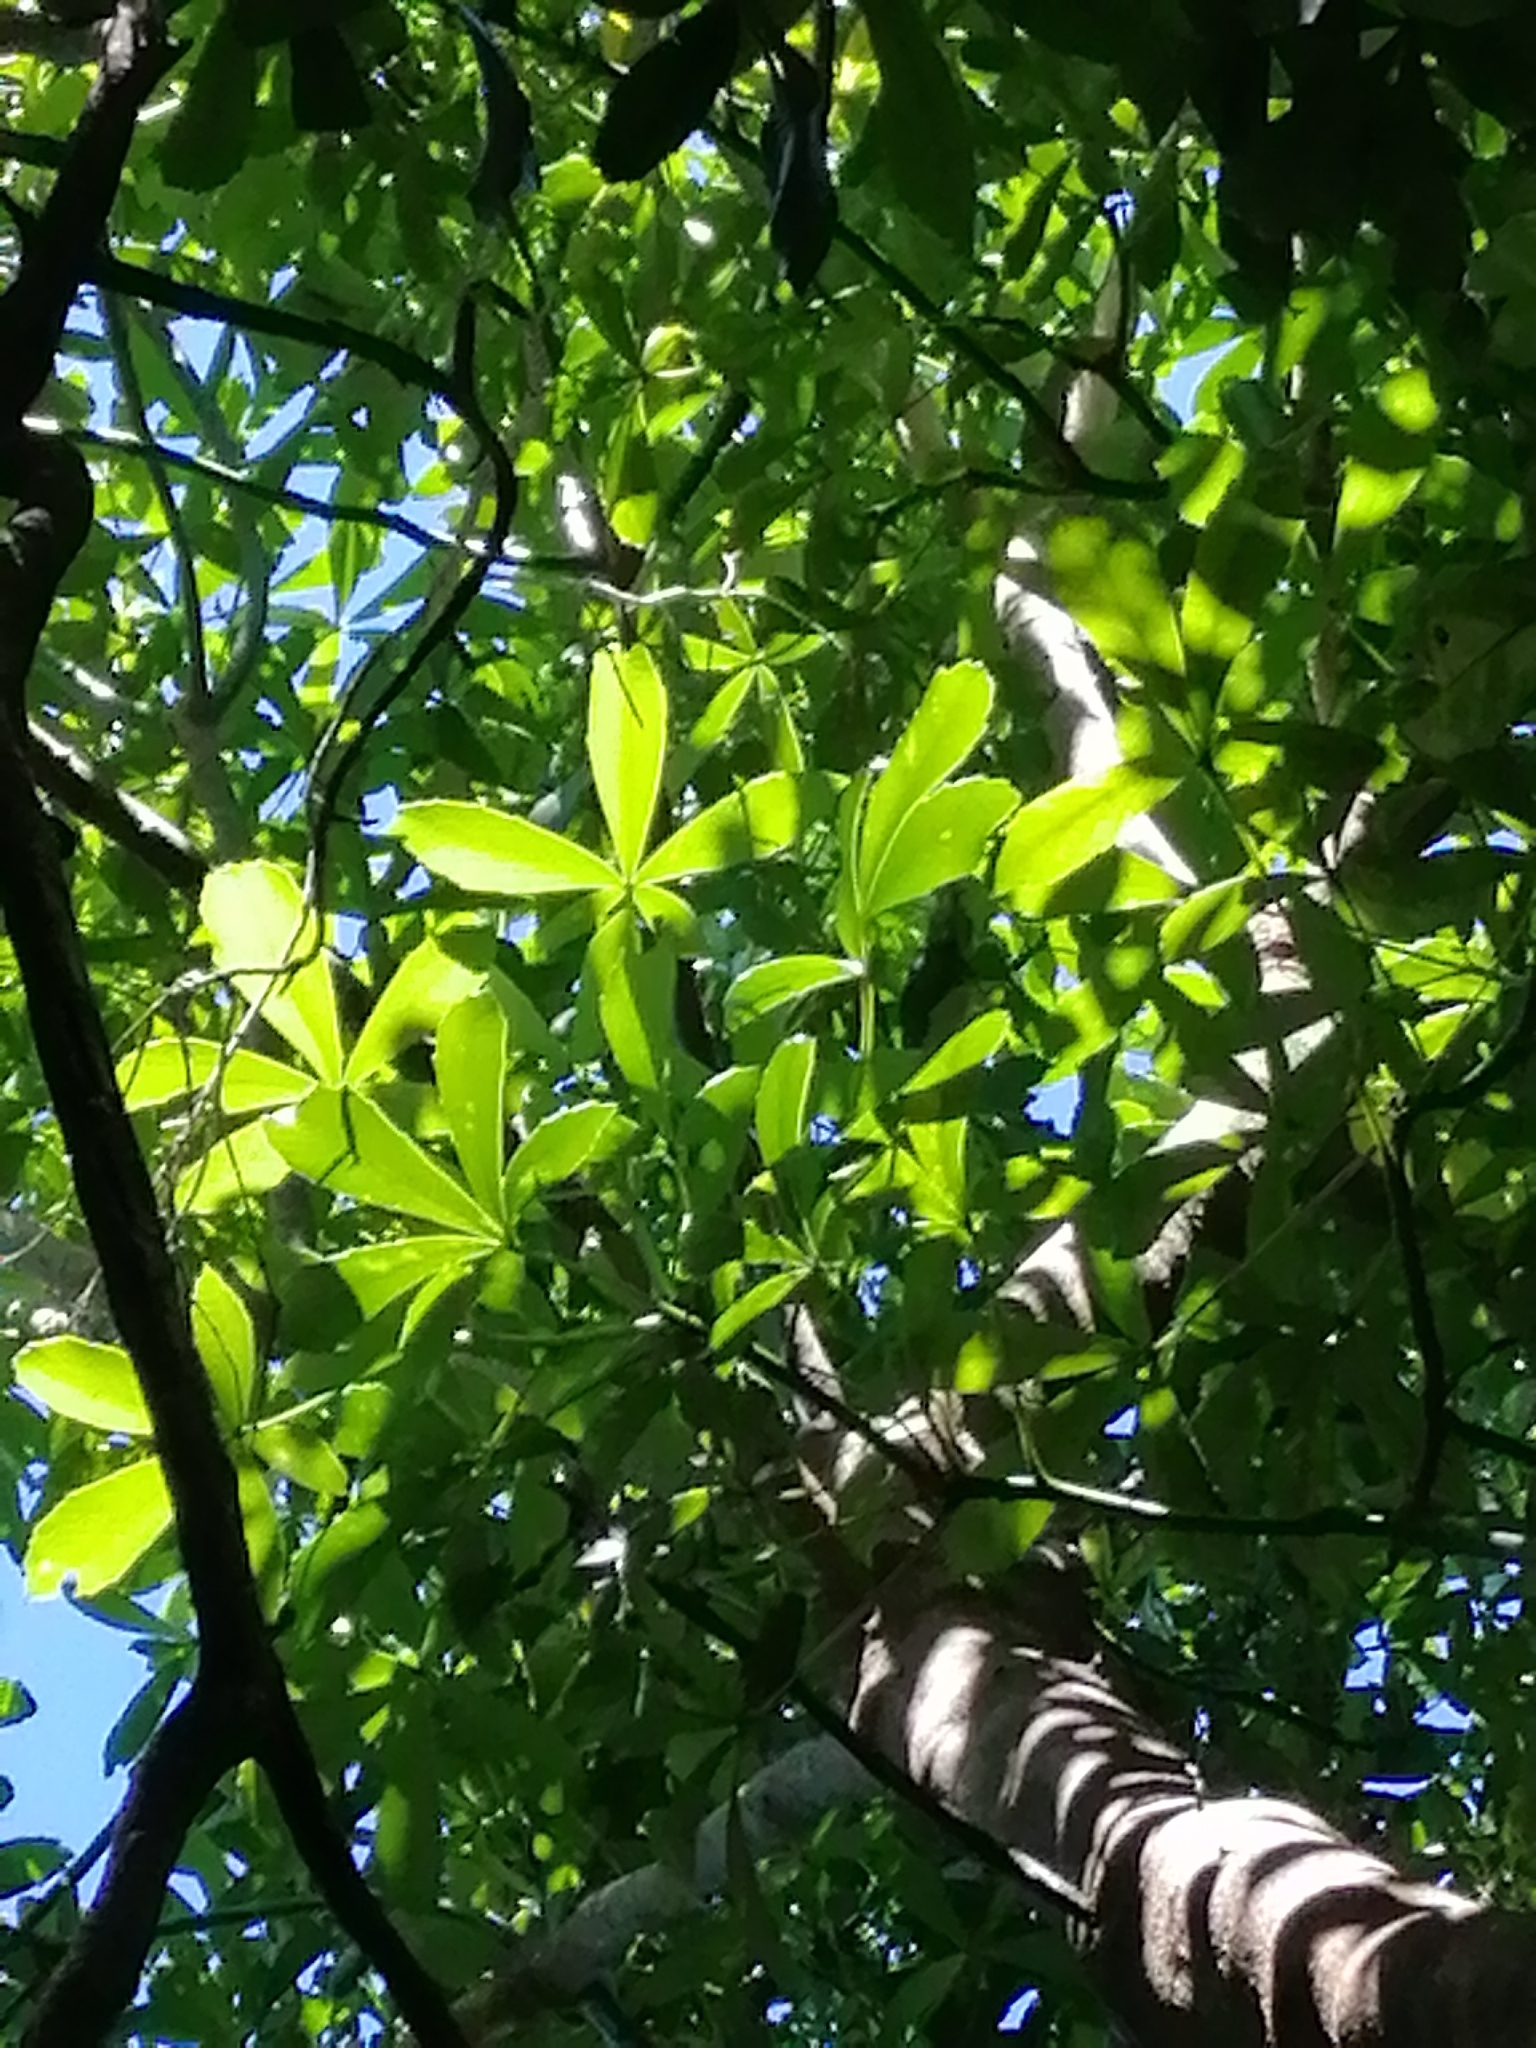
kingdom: Plantae
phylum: Tracheophyta
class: Magnoliopsida
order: Apiales
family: Araliaceae
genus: Pseudopanax
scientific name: Pseudopanax lessonii
